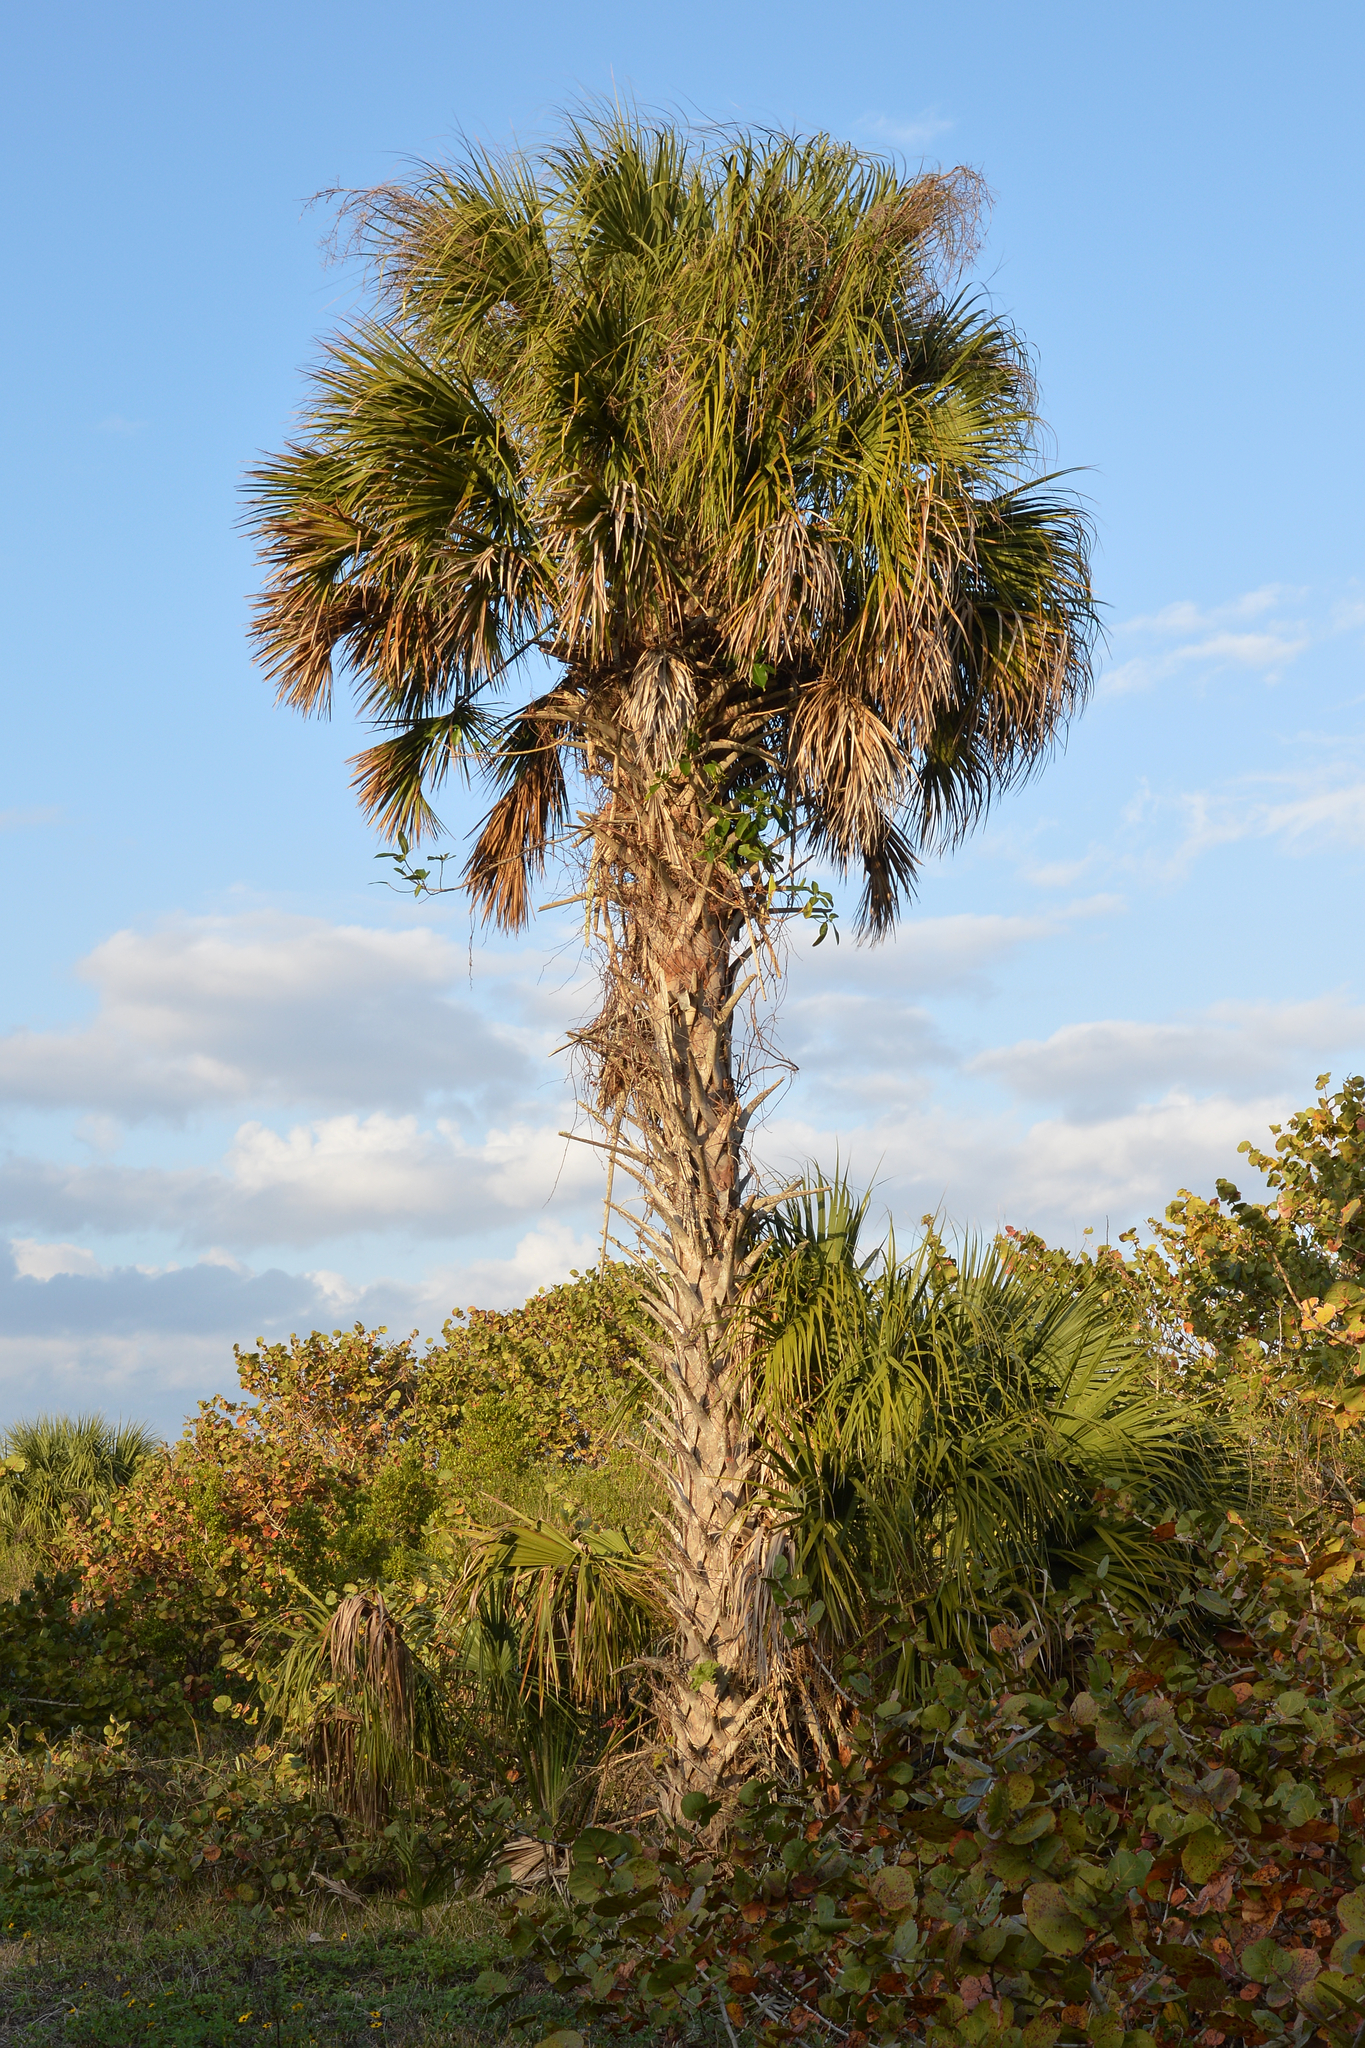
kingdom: Plantae
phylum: Tracheophyta
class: Liliopsida
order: Arecales
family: Arecaceae
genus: Sabal
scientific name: Sabal palmetto
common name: Blue palmetto
